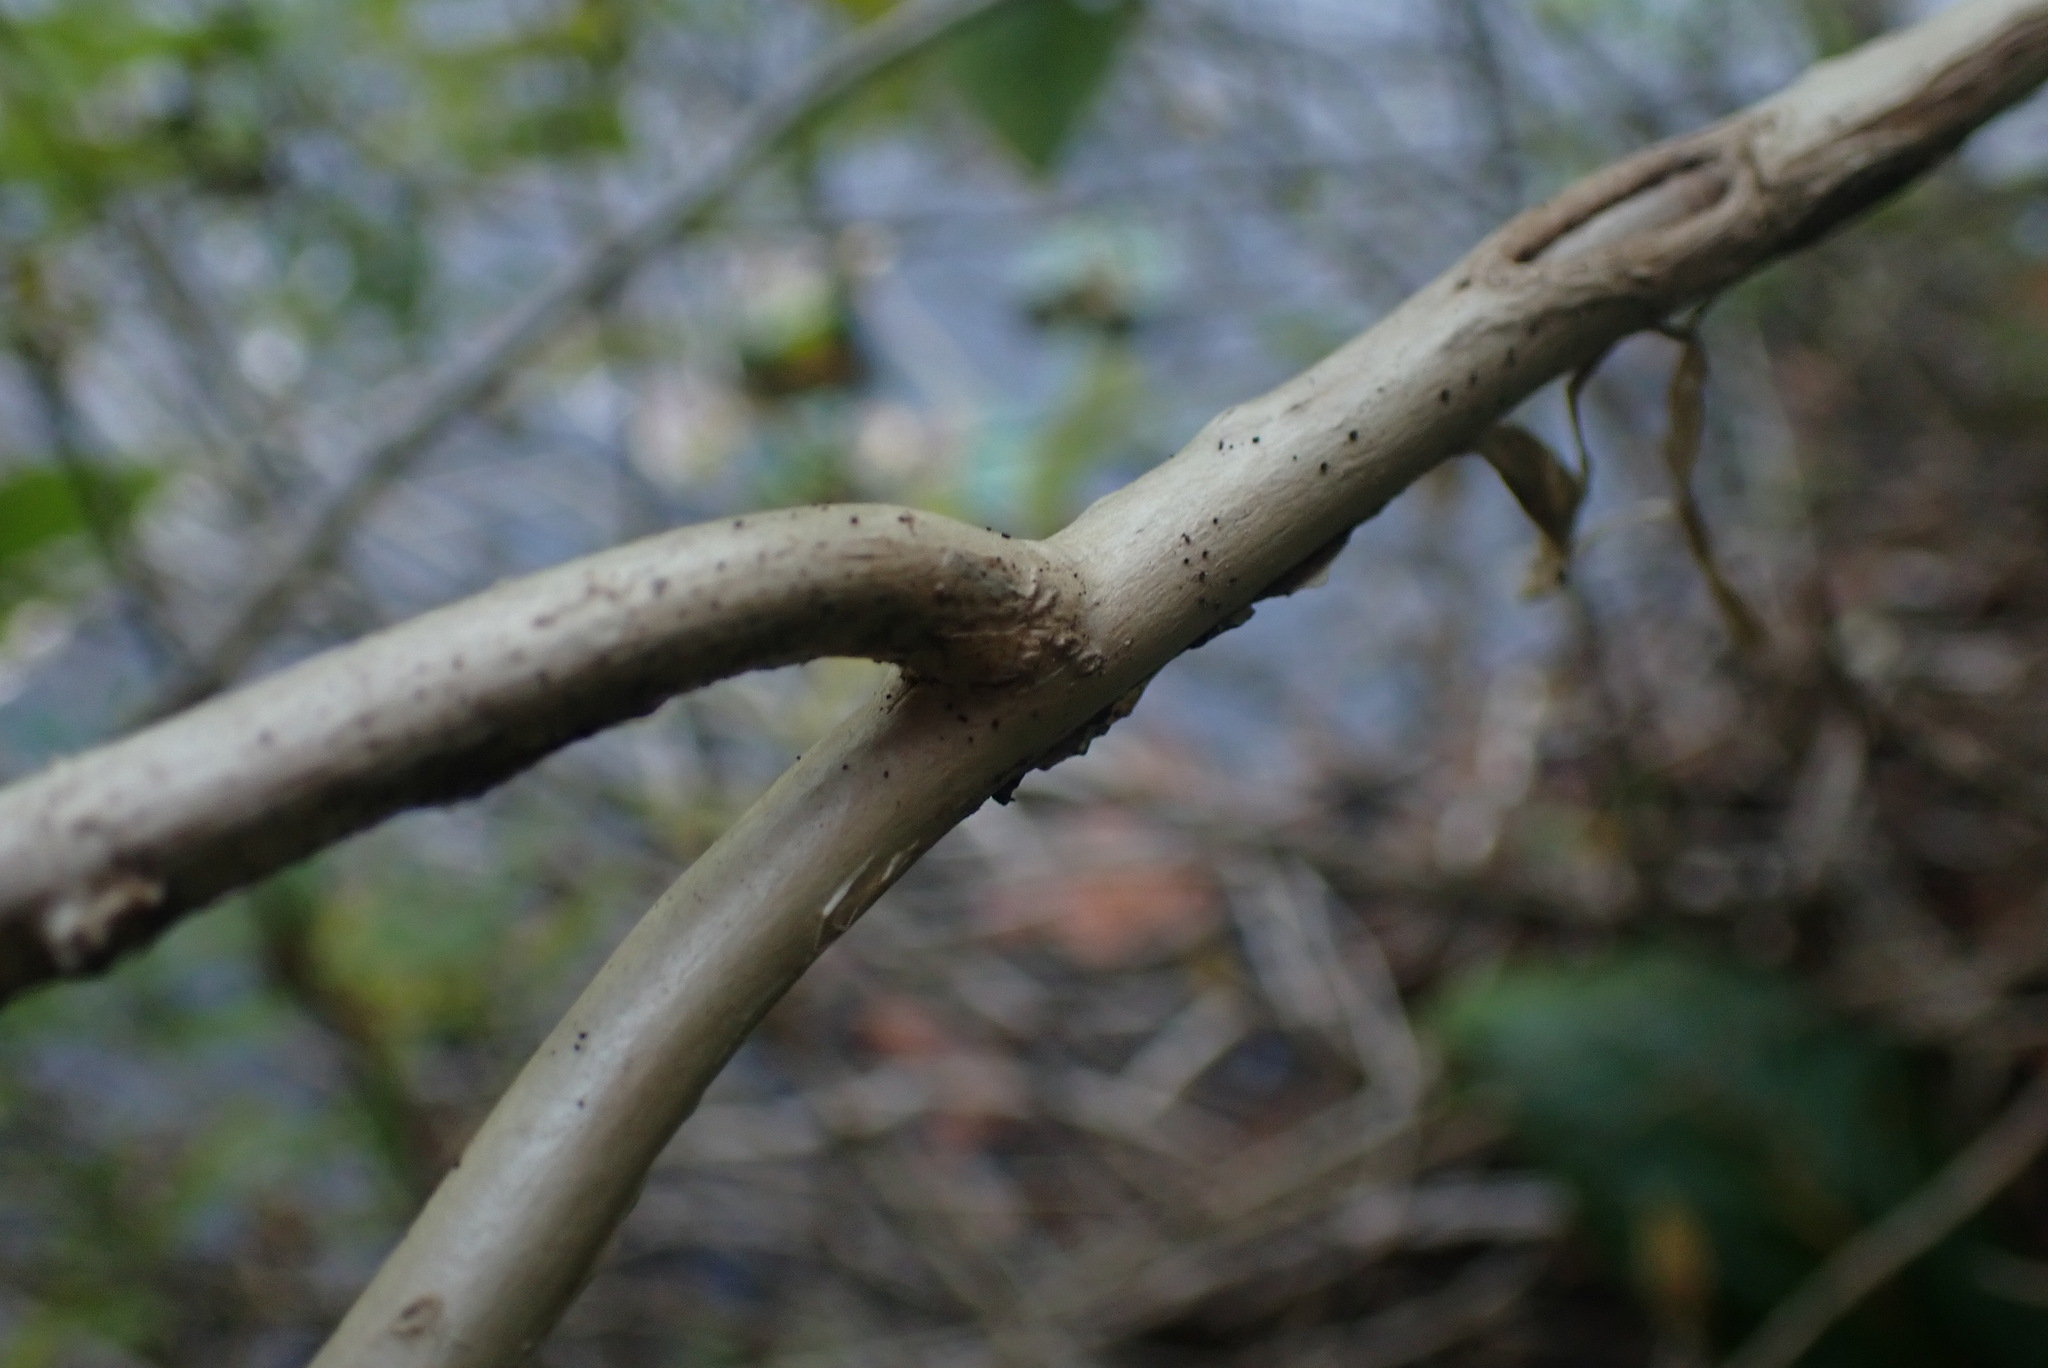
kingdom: Plantae
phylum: Tracheophyta
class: Magnoliopsida
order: Dipsacales
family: Caprifoliaceae
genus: Lonicera
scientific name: Lonicera involucrata
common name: Californian honeysuckle
